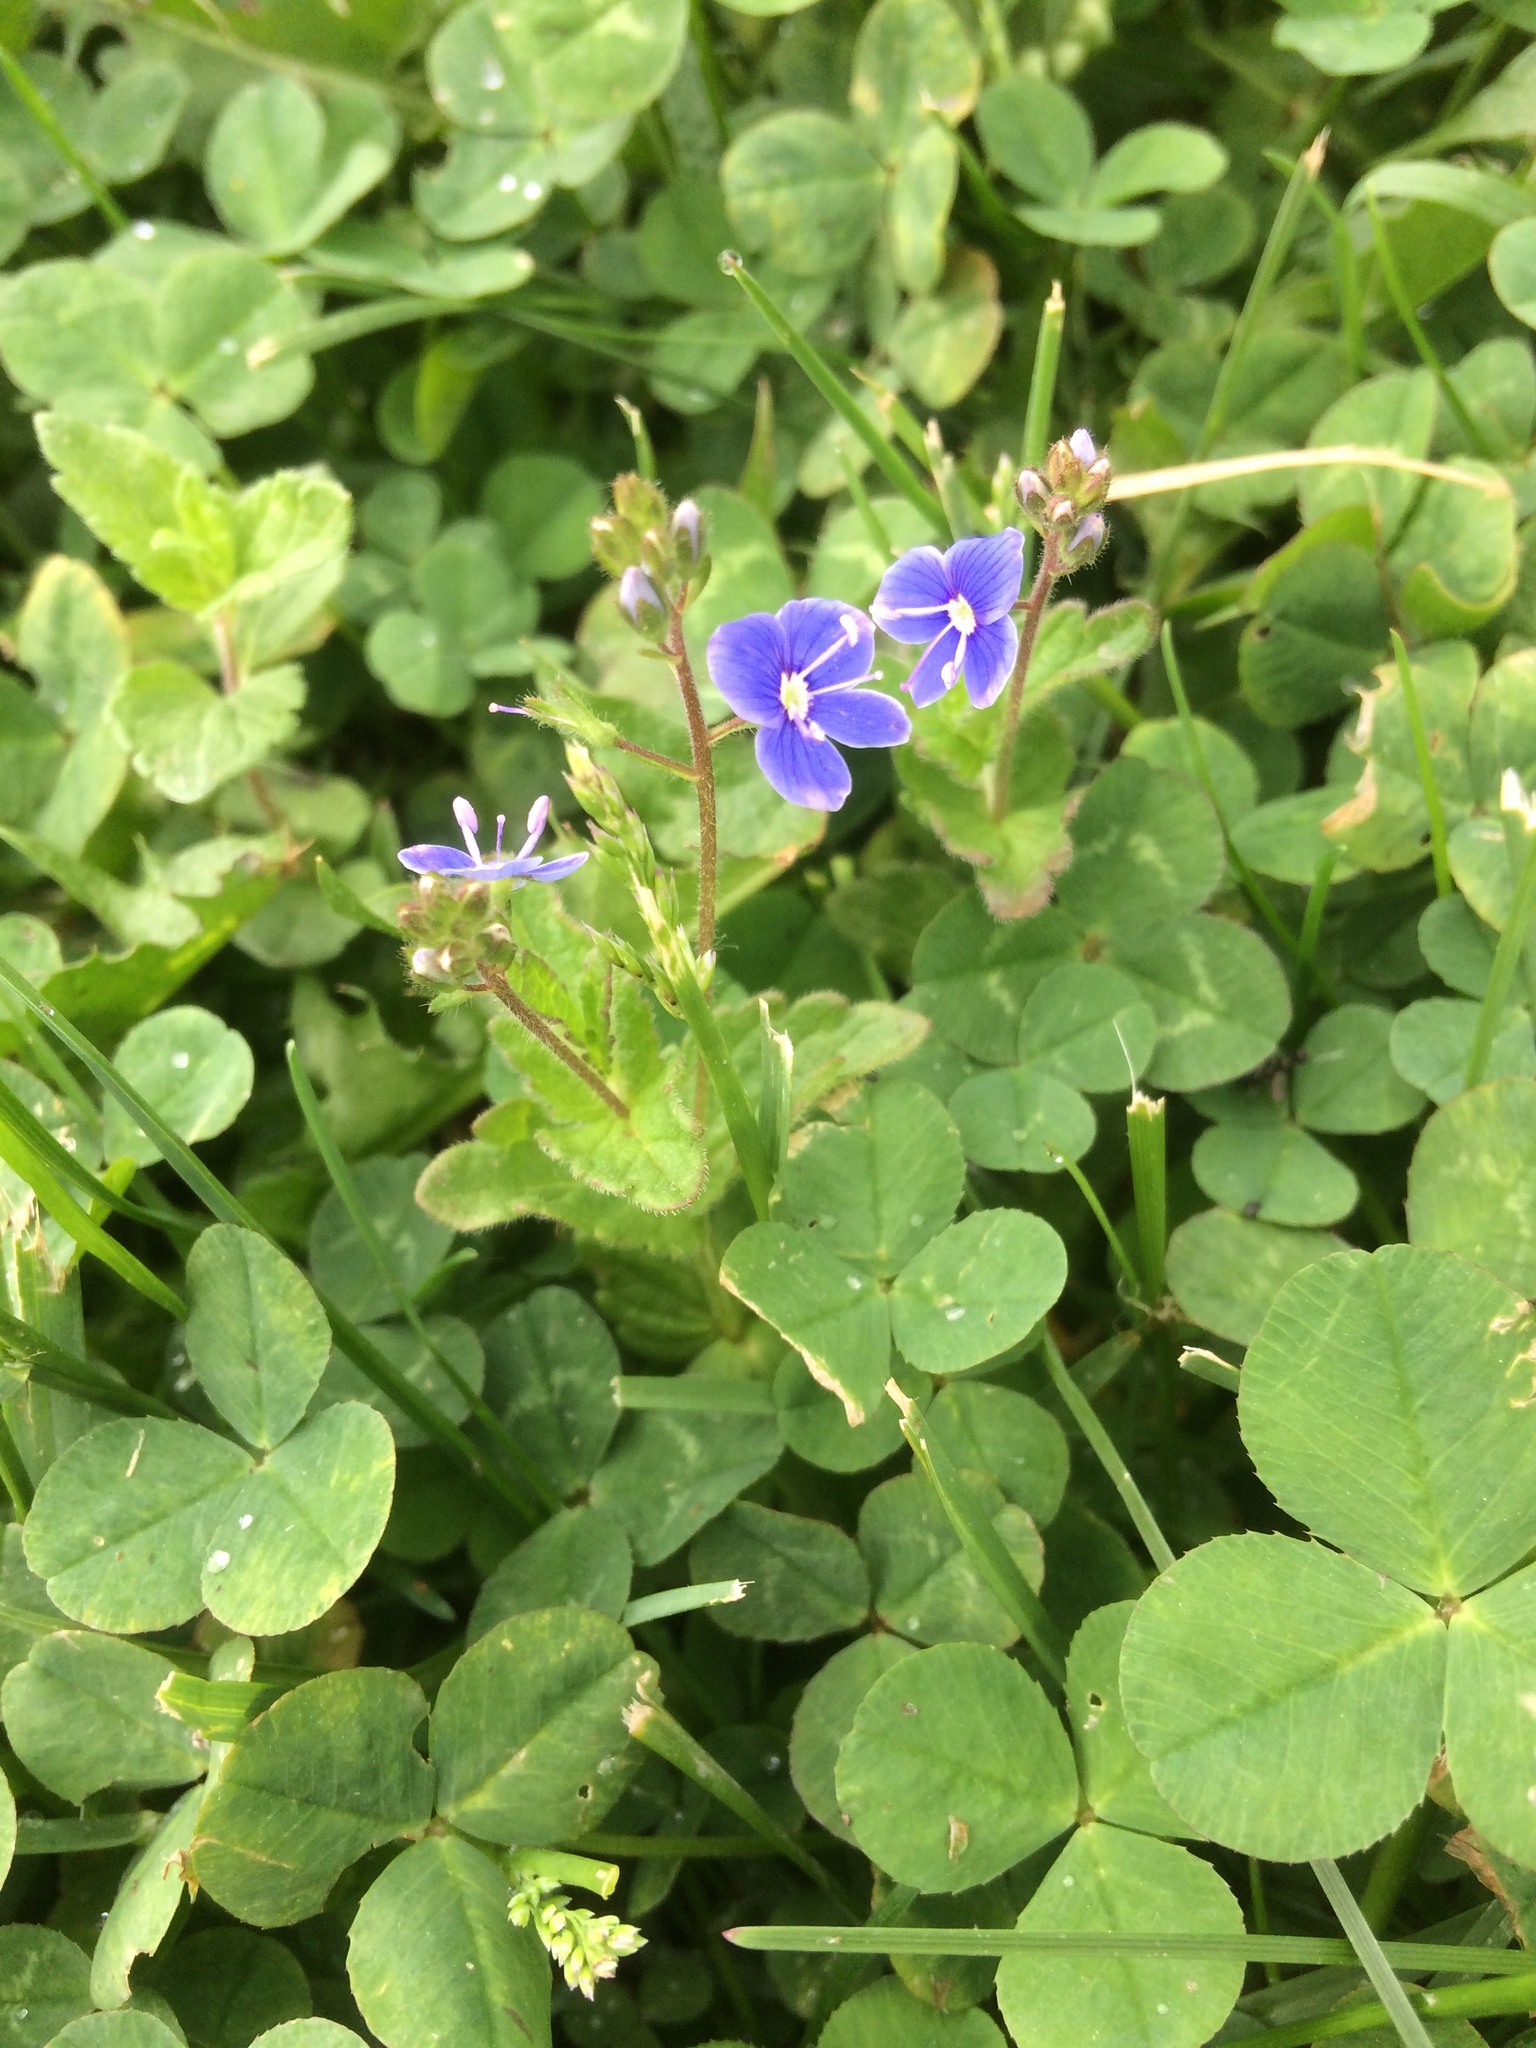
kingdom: Plantae
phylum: Tracheophyta
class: Magnoliopsida
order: Lamiales
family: Plantaginaceae
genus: Veronica
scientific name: Veronica chamaedrys
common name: Germander speedwell
